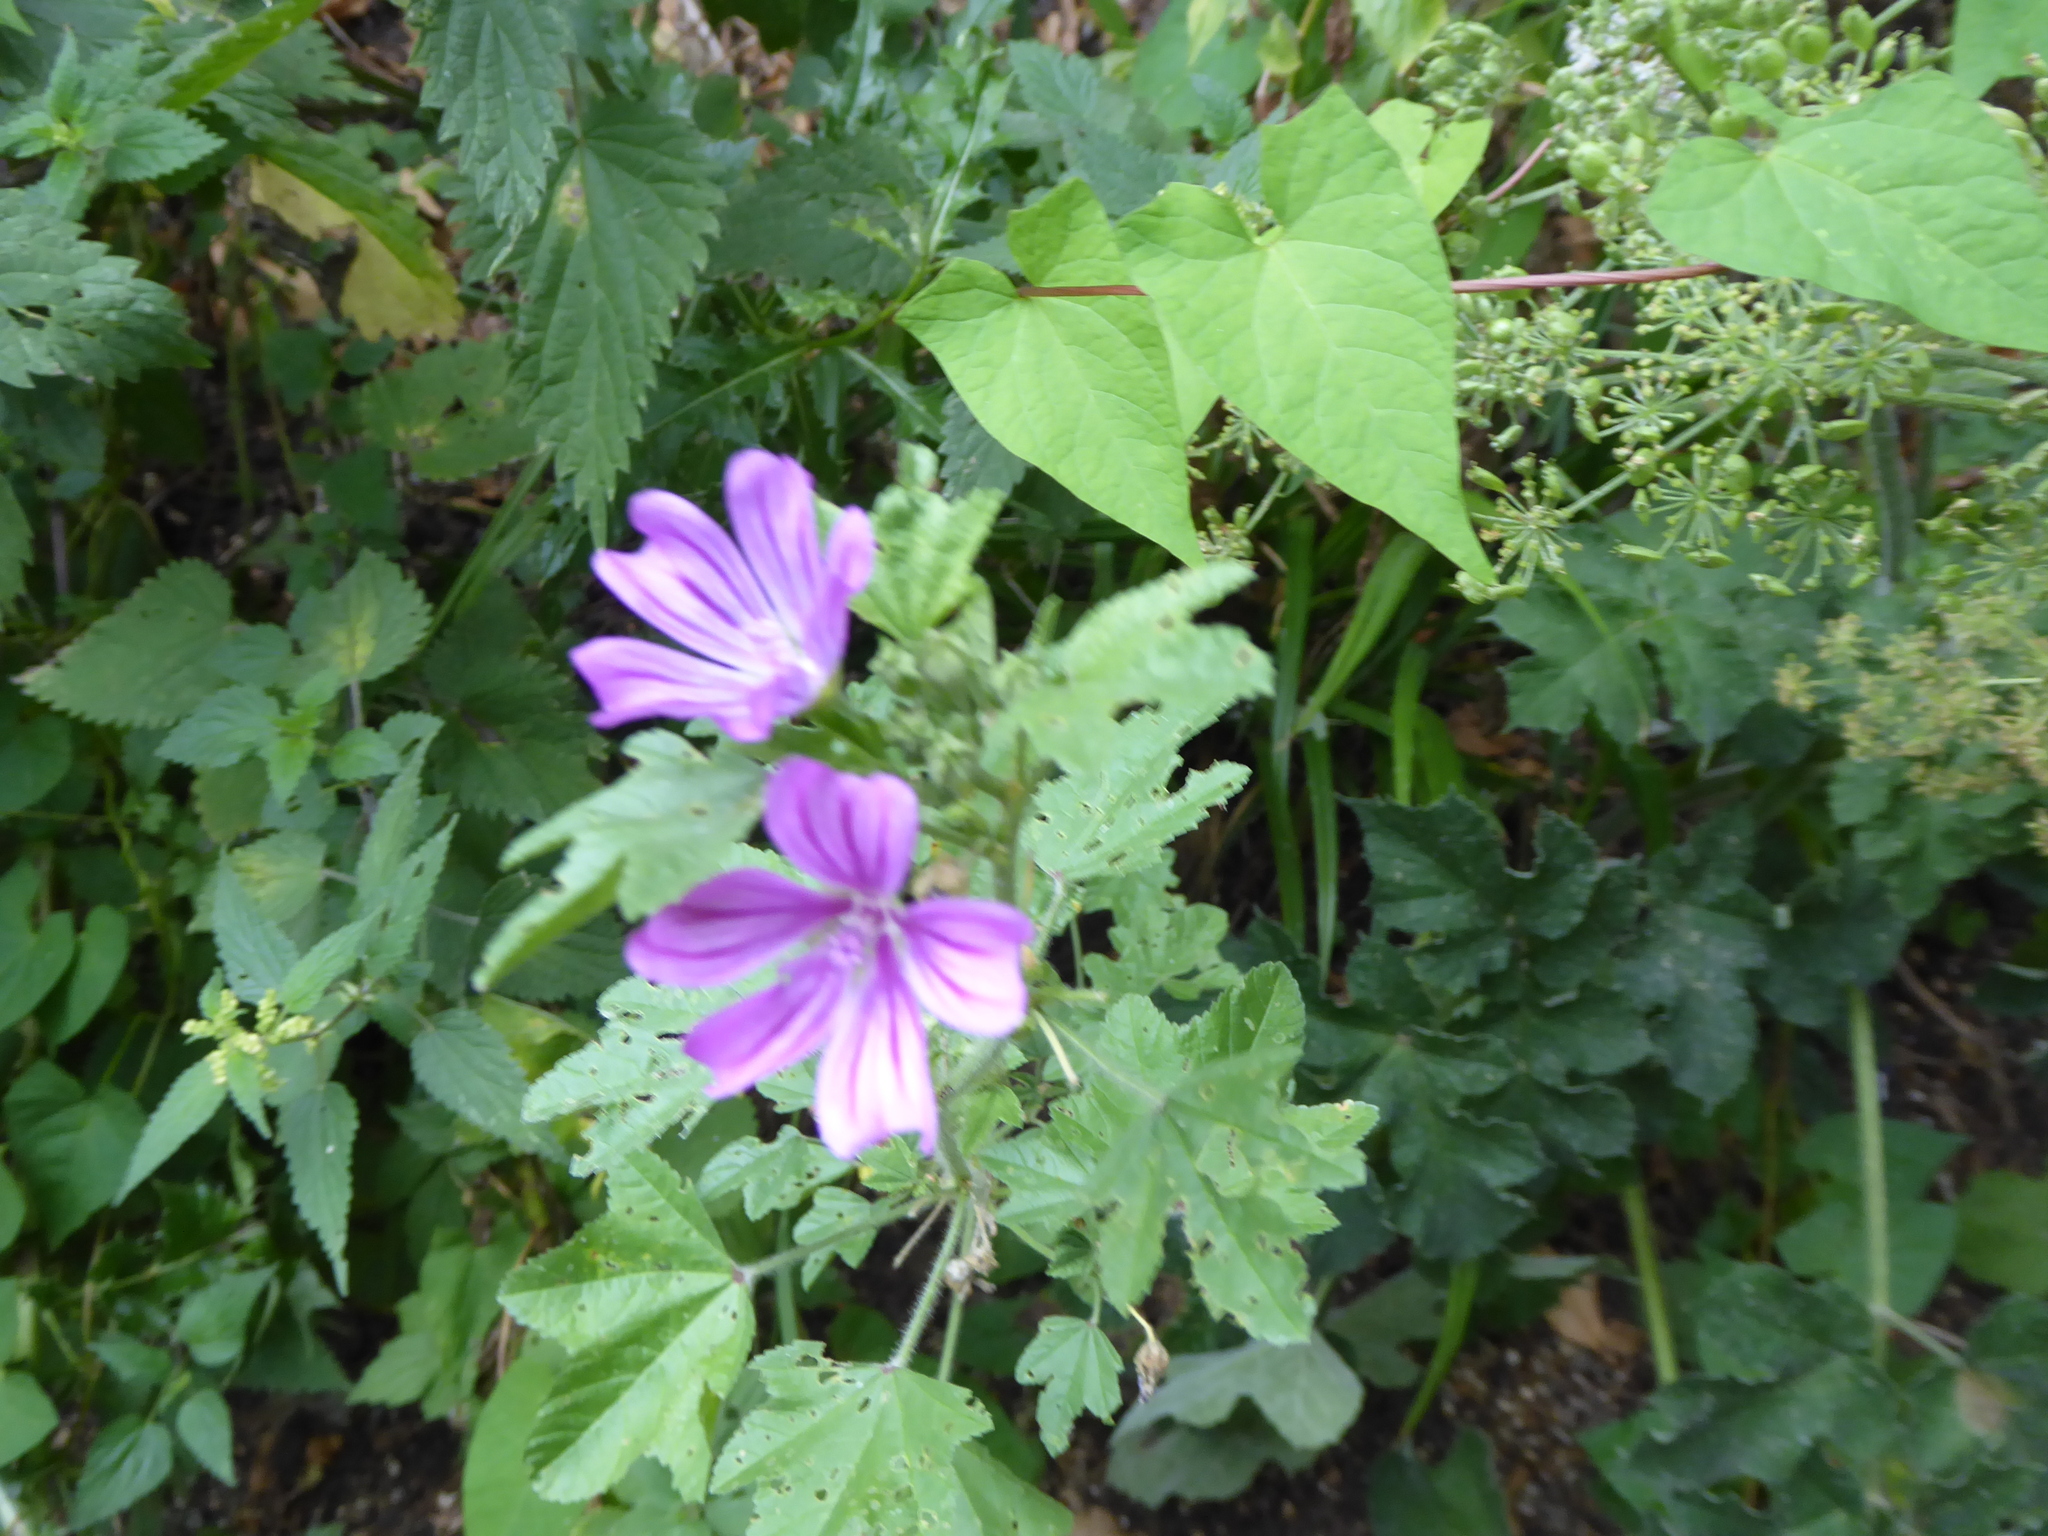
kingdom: Plantae
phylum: Tracheophyta
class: Magnoliopsida
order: Malvales
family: Malvaceae
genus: Malva
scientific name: Malva sylvestris
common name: Common mallow
